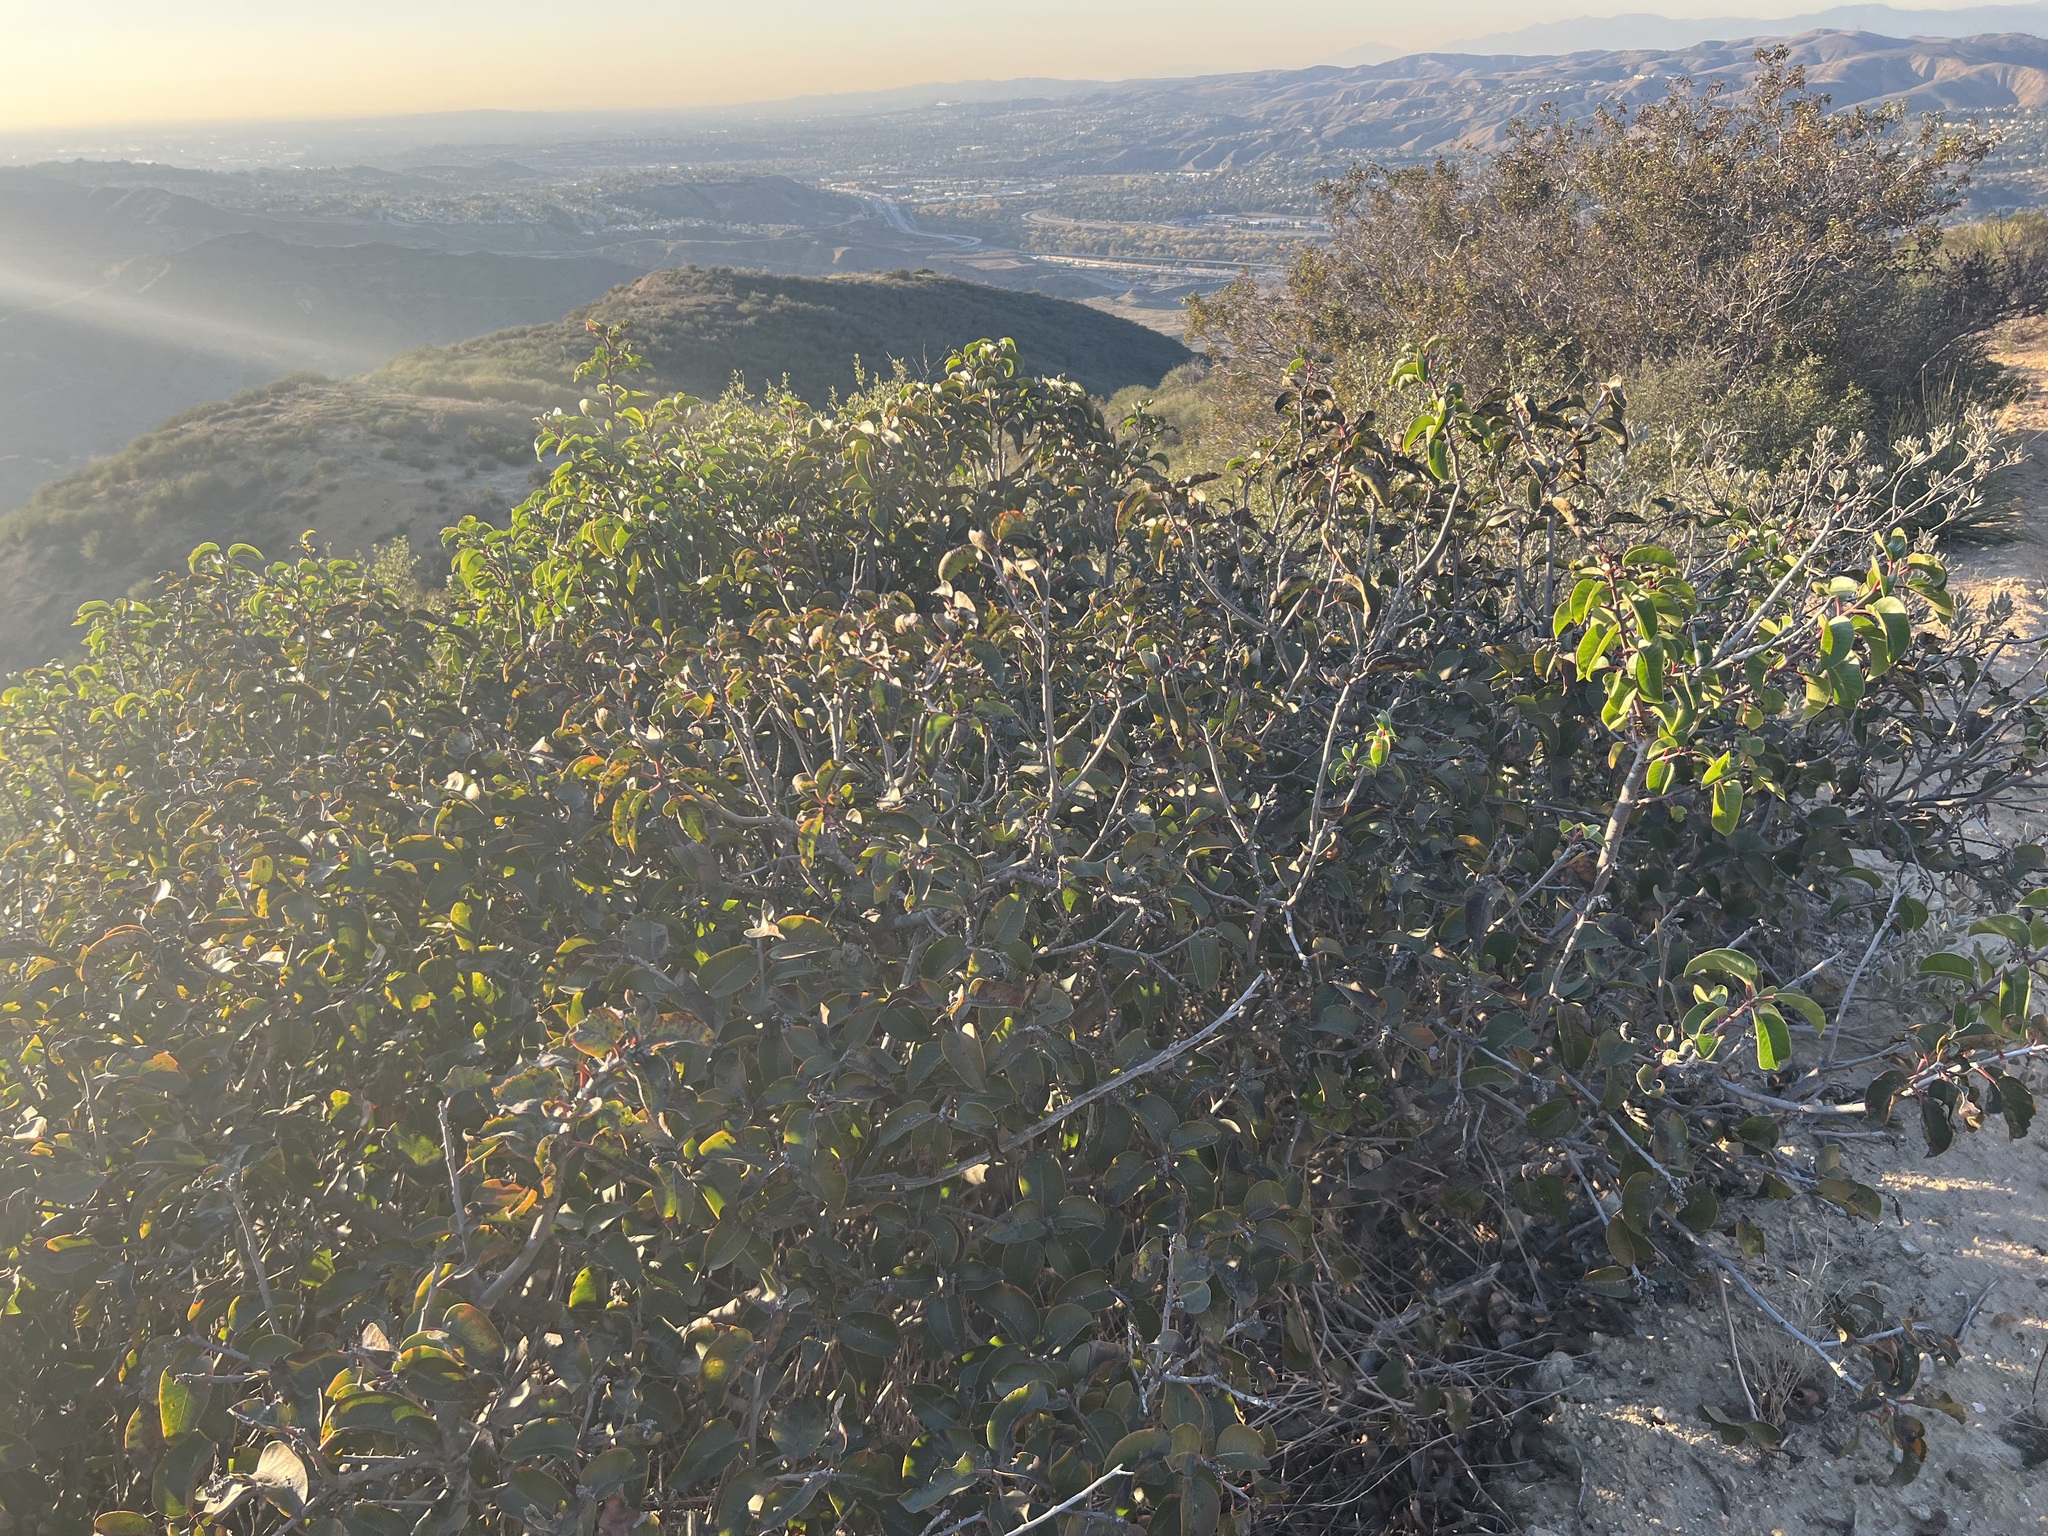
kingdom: Plantae
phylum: Tracheophyta
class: Magnoliopsida
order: Sapindales
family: Anacardiaceae
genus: Rhus
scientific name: Rhus ovata
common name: Sugar sumac
